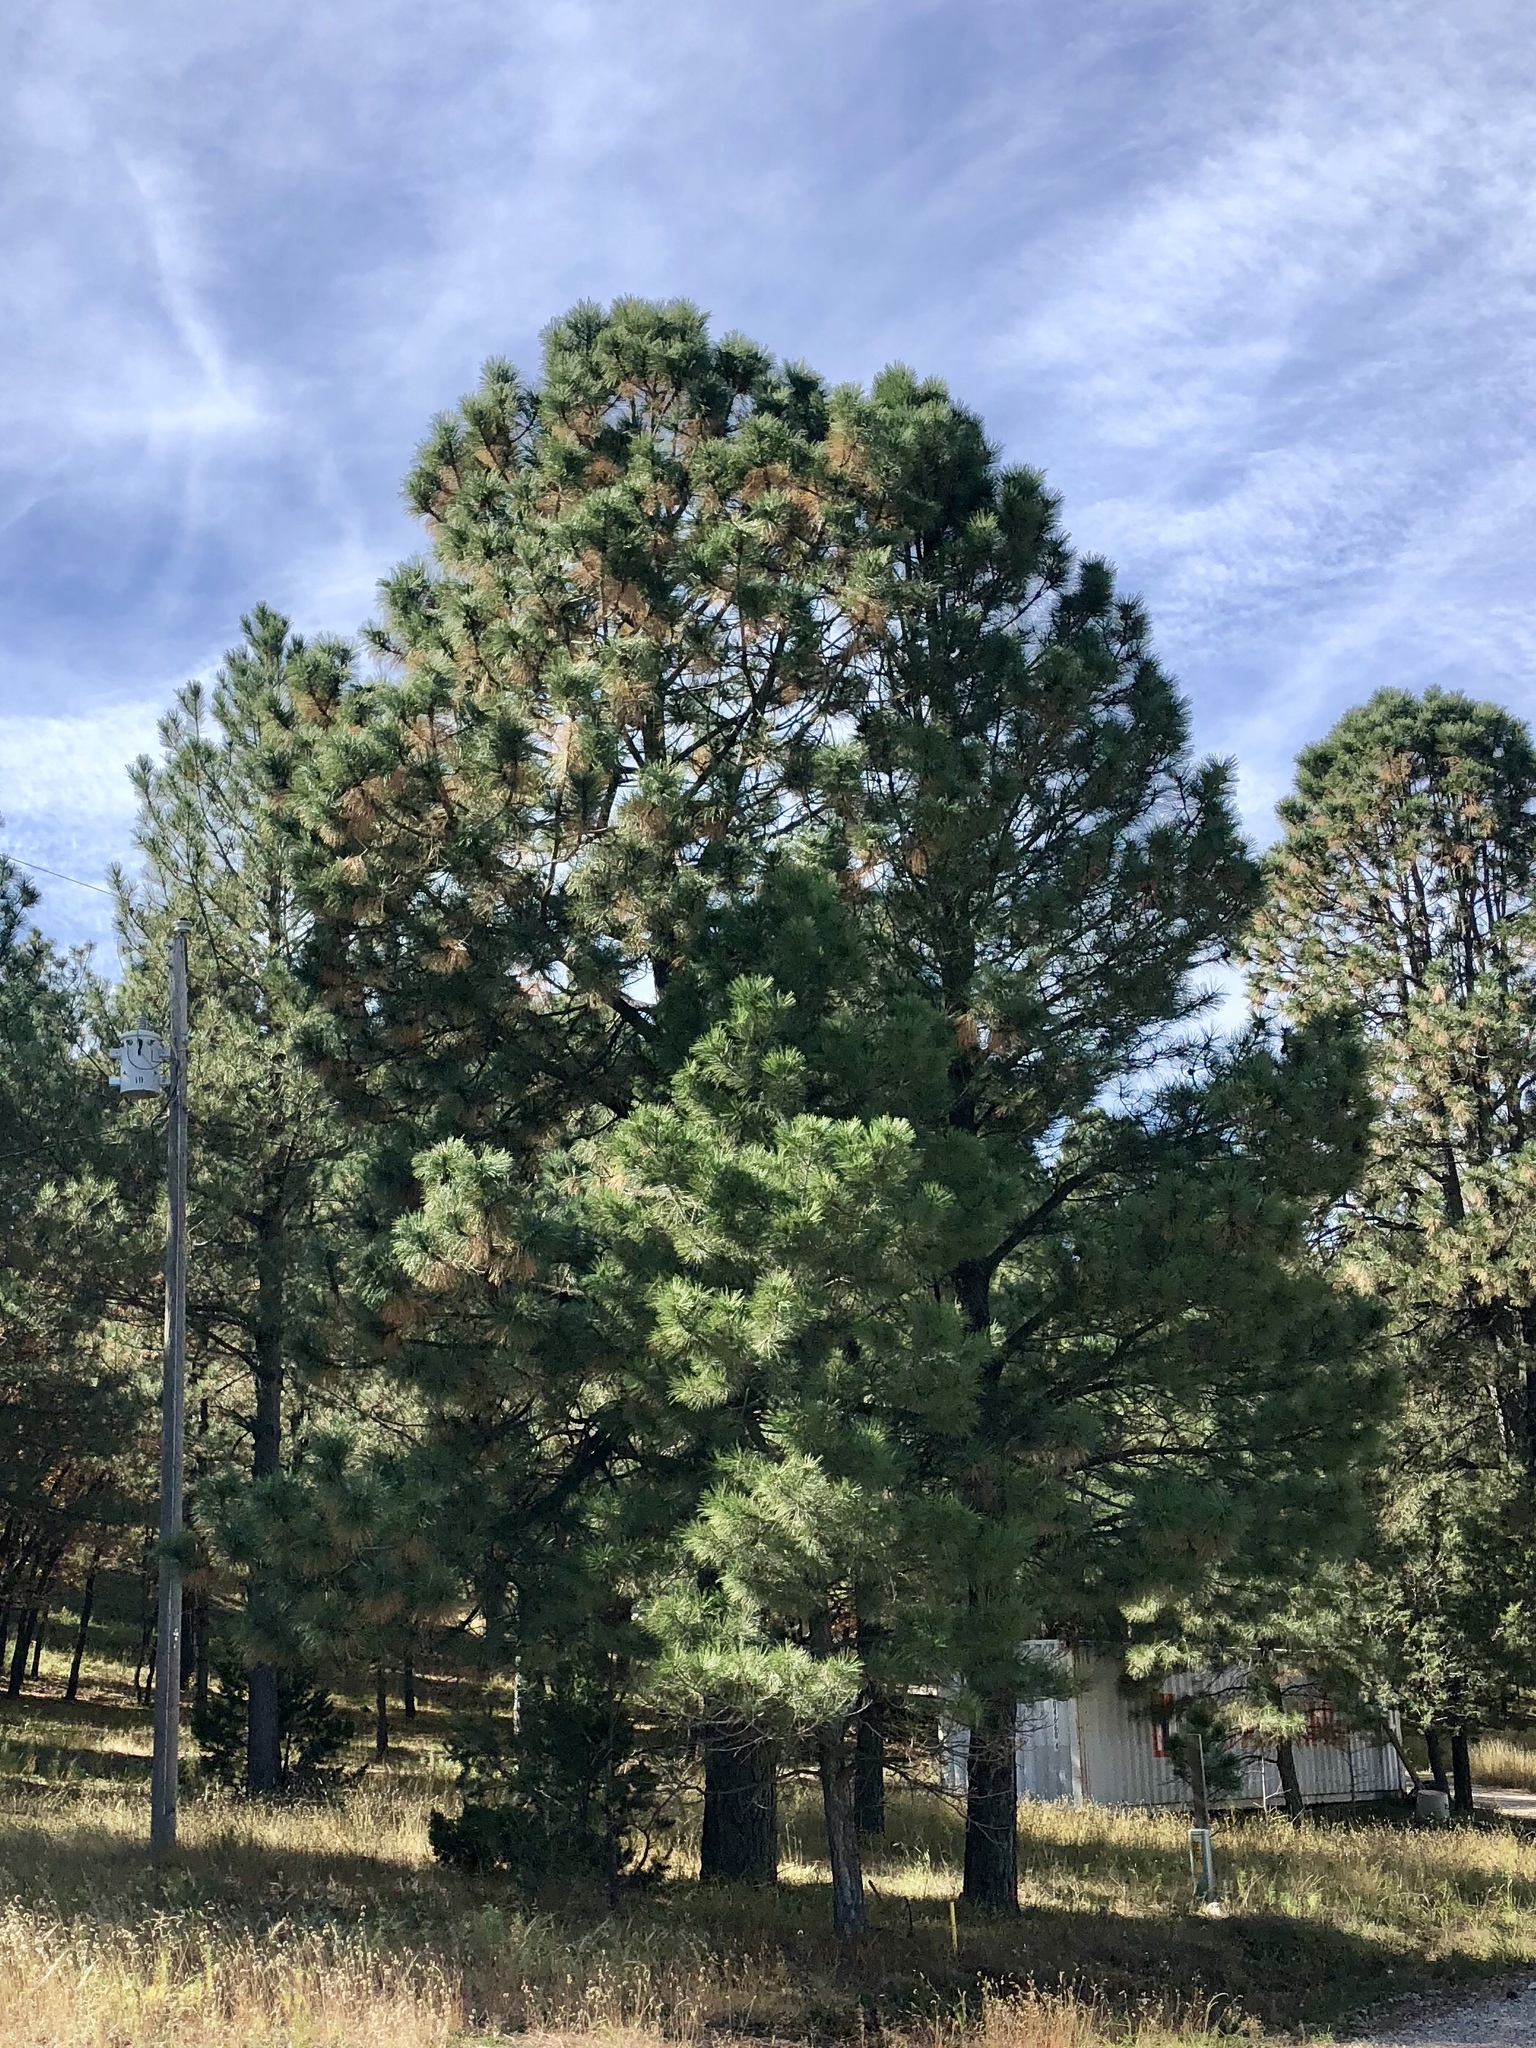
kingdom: Plantae
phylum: Tracheophyta
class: Pinopsida
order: Pinales
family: Pinaceae
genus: Pinus
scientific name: Pinus ponderosa
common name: Western yellow-pine
